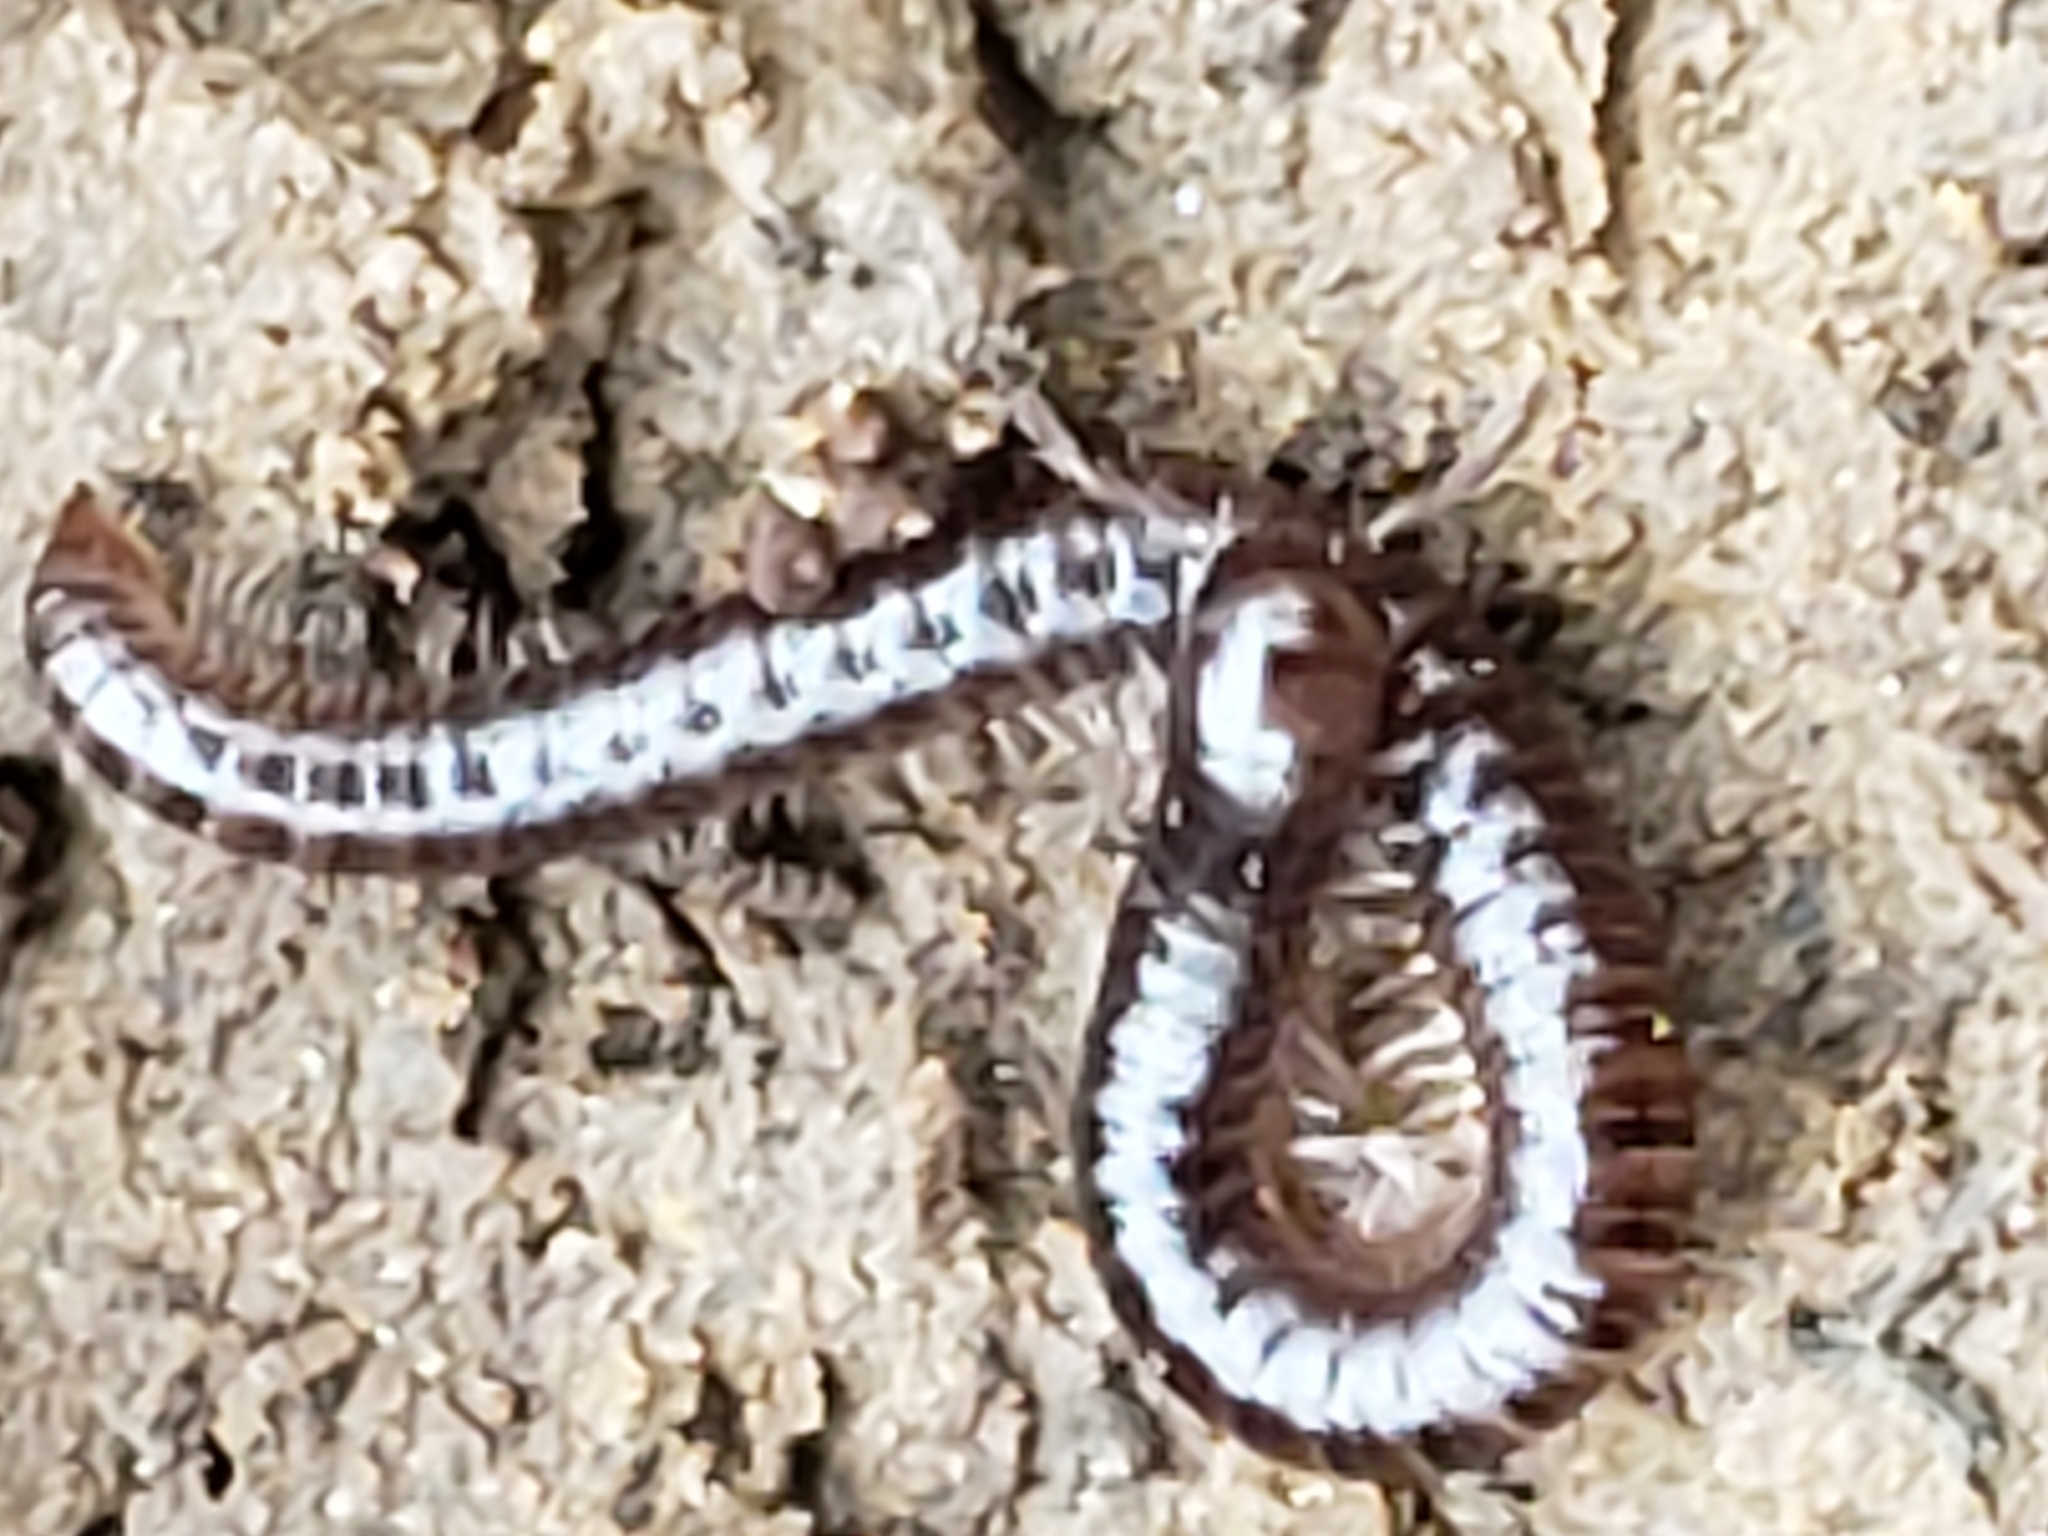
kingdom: Animalia
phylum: Arthropoda
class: Diplopoda
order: Julida
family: Julidae
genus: Ophyiulus
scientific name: Ophyiulus pilosus
